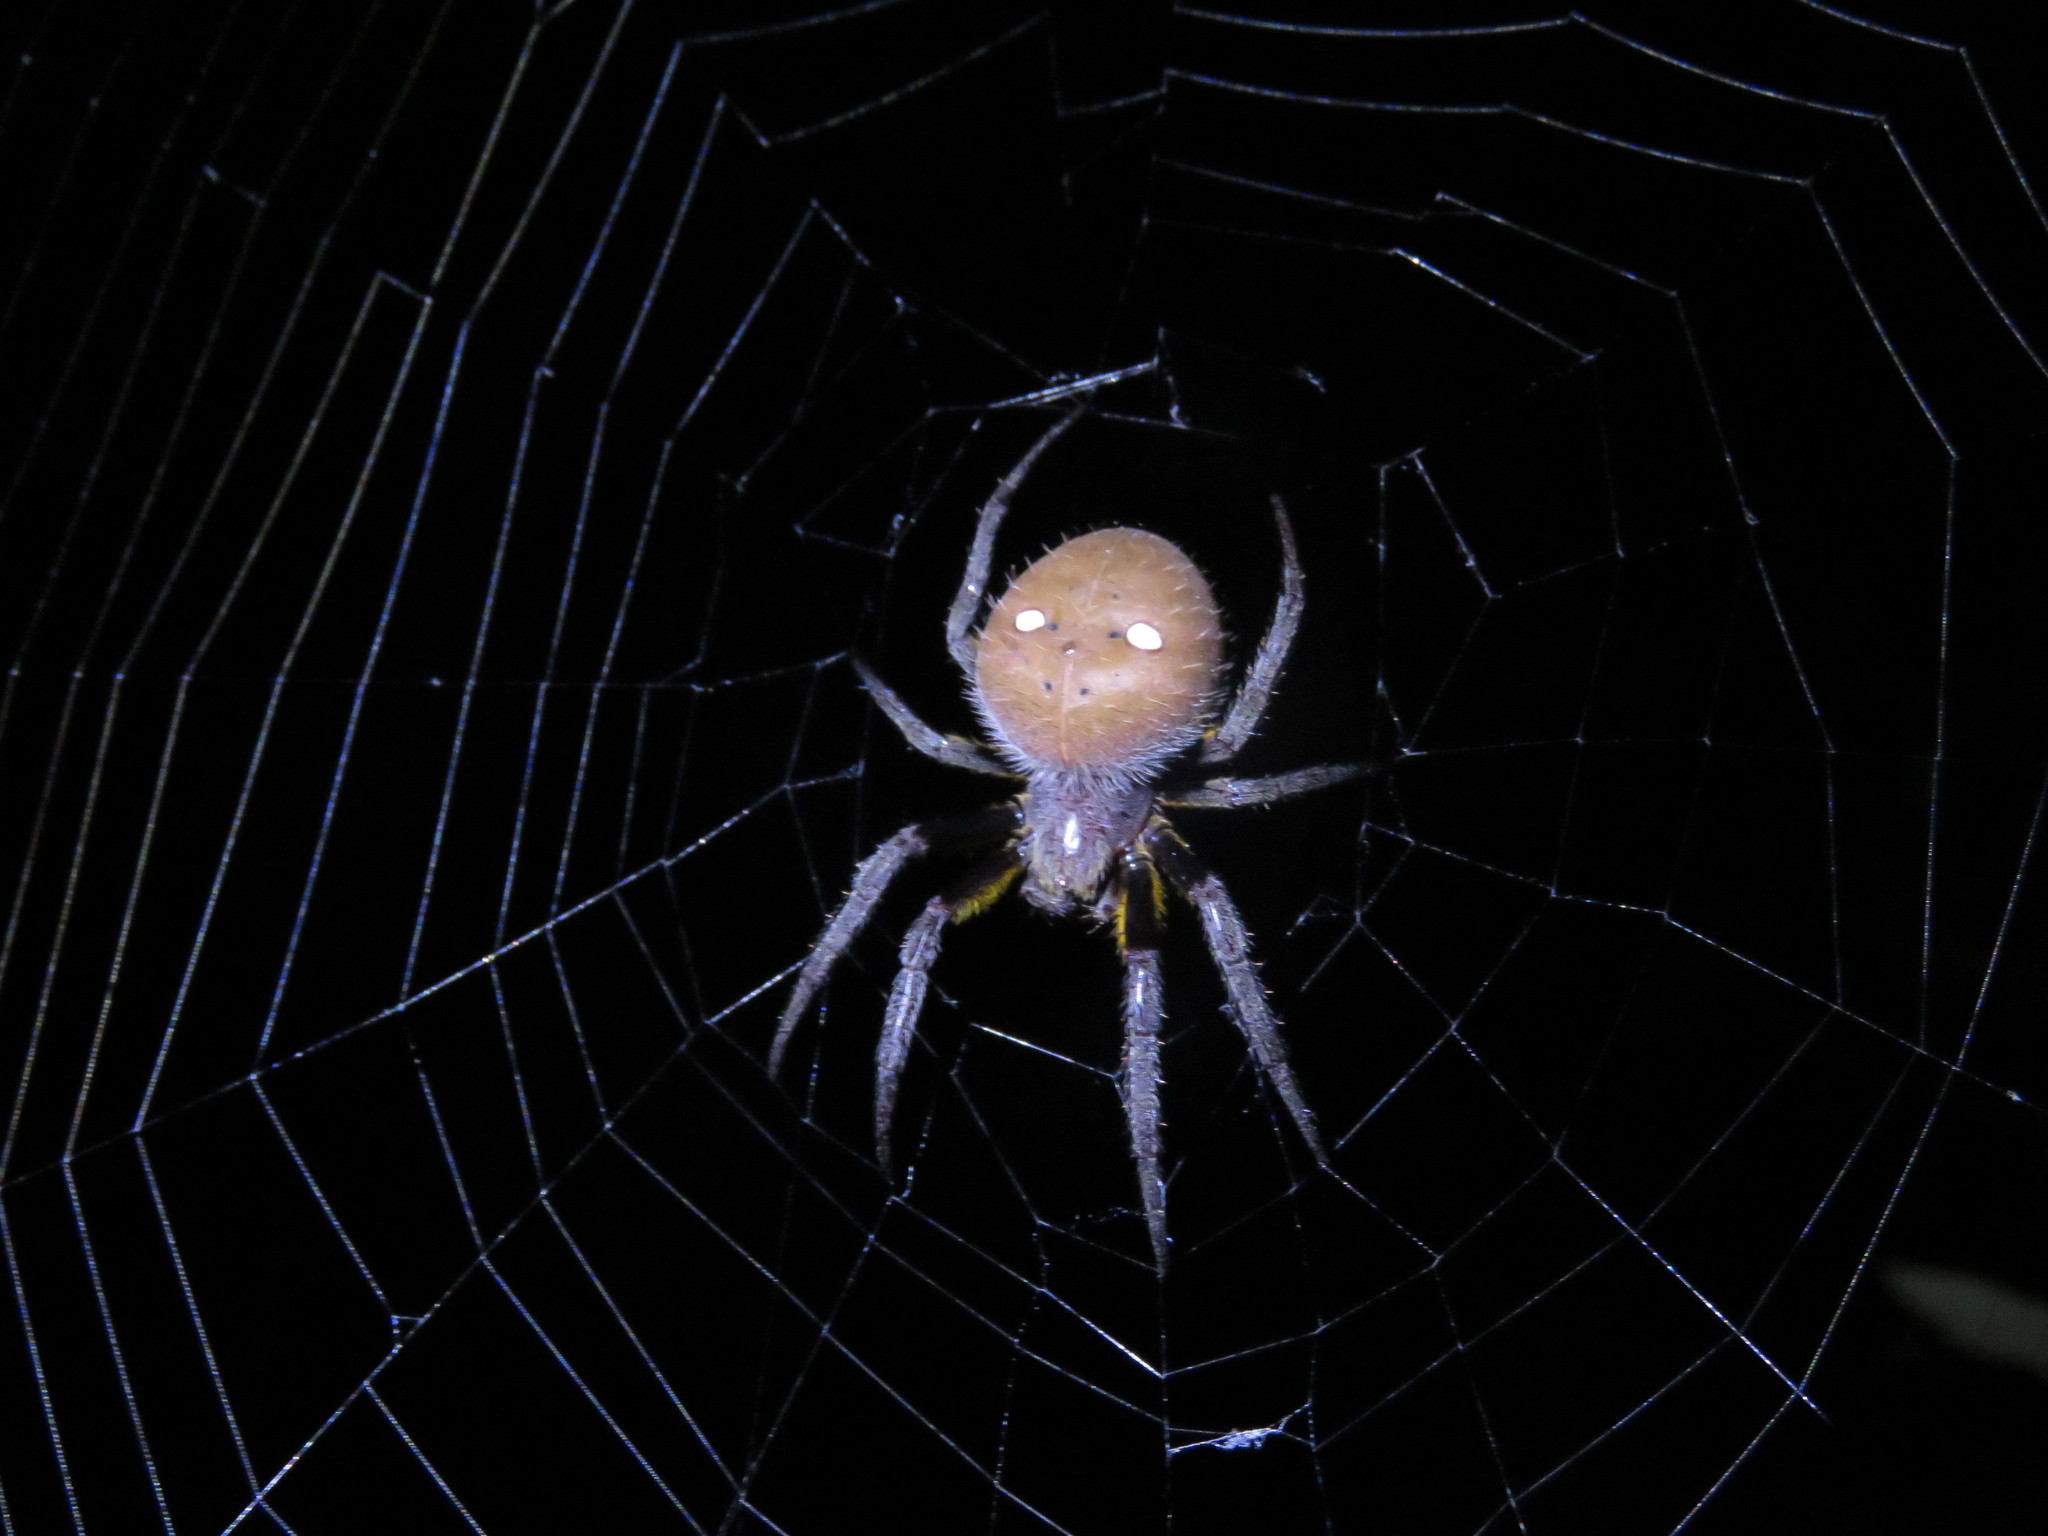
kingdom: Animalia
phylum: Arthropoda
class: Arachnida
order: Araneae
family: Araneidae
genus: Eriophora
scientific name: Eriophora fuliginea
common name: Orb weavers
